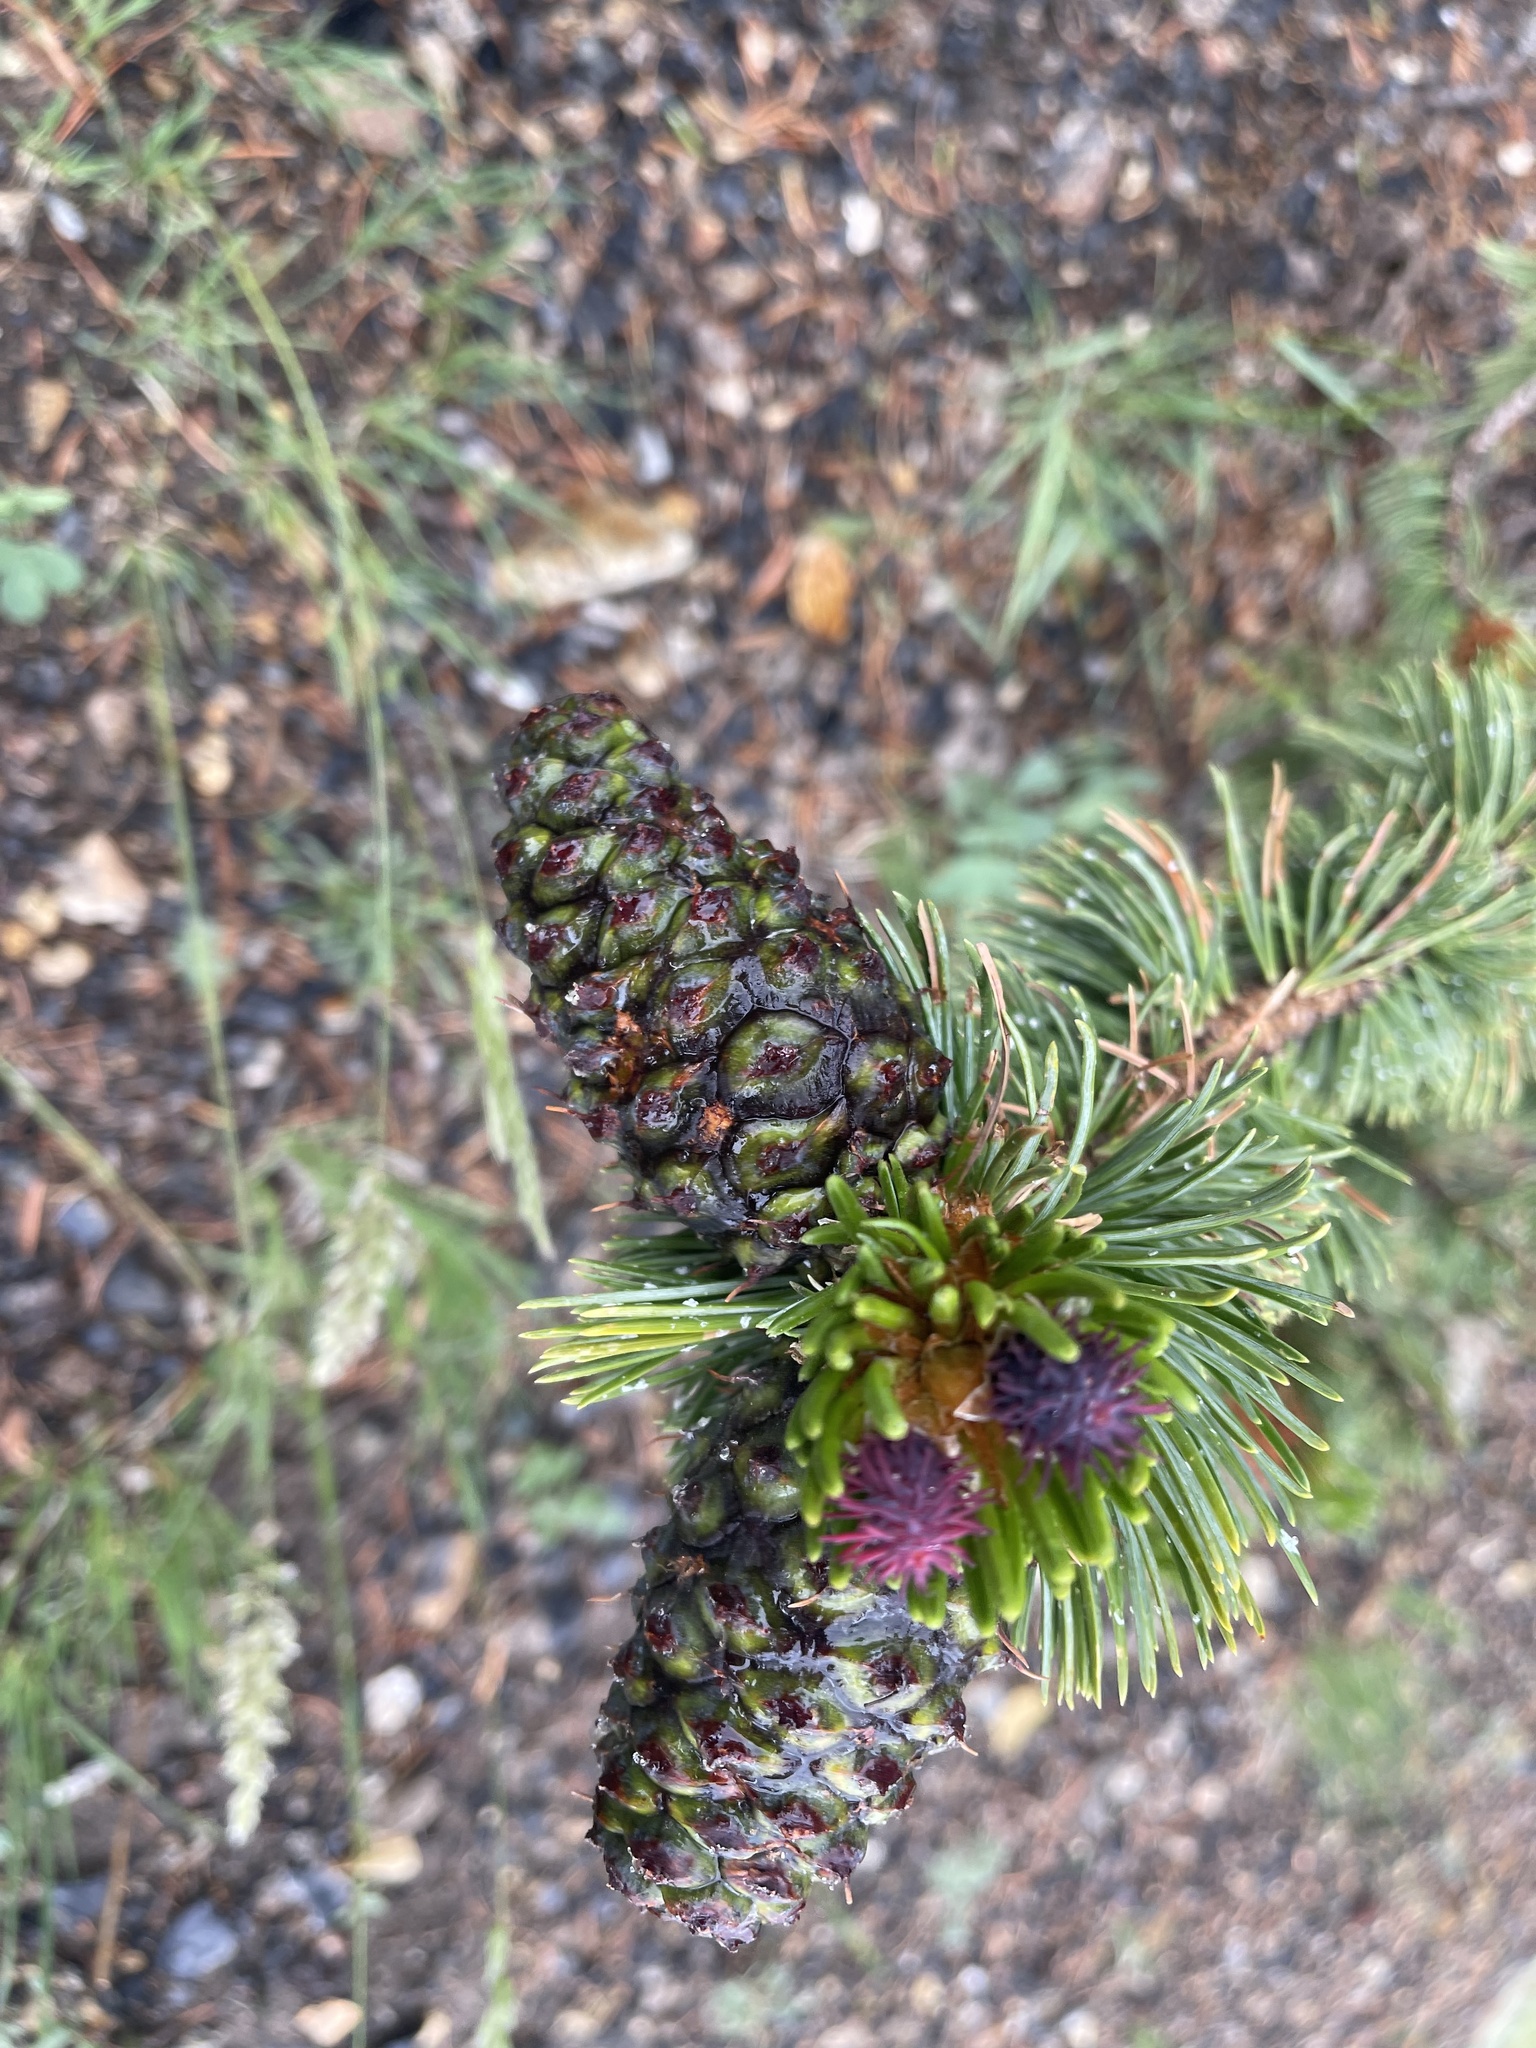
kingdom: Plantae
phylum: Tracheophyta
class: Pinopsida
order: Pinales
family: Pinaceae
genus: Pinus
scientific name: Pinus aristata
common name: Colorado bristlecone pine
